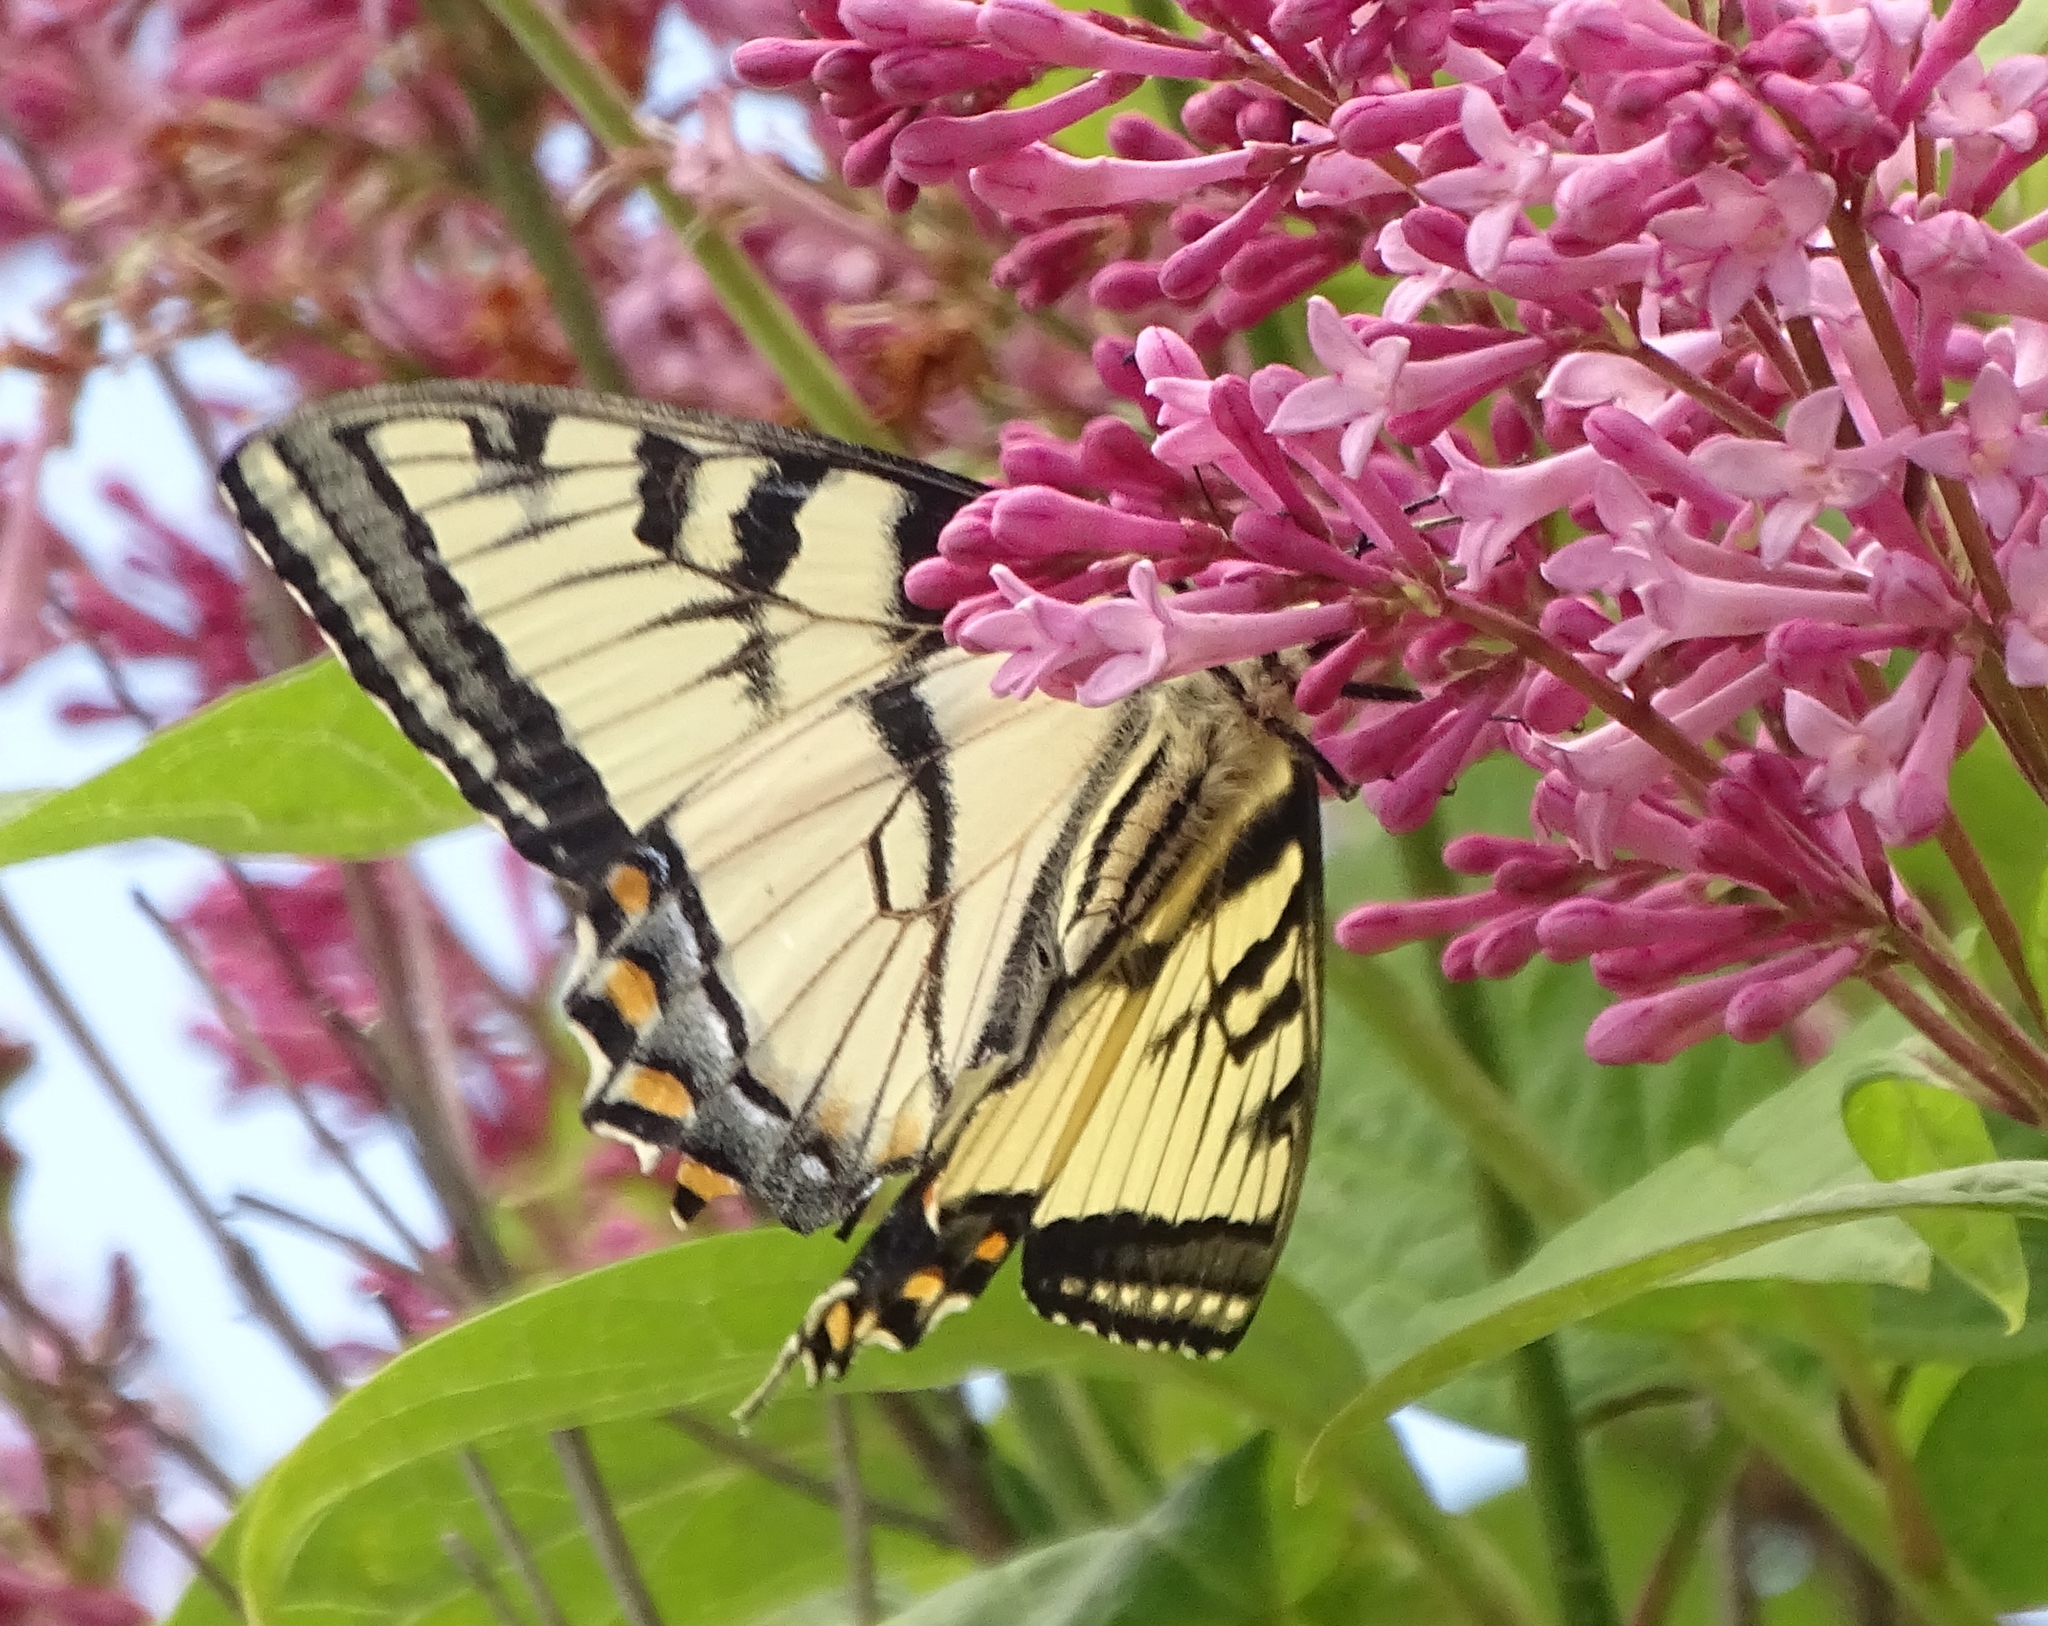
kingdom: Animalia
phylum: Arthropoda
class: Insecta
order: Lepidoptera
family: Papilionidae
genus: Papilio
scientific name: Papilio canadensis
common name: Canadian tiger swallowtail
